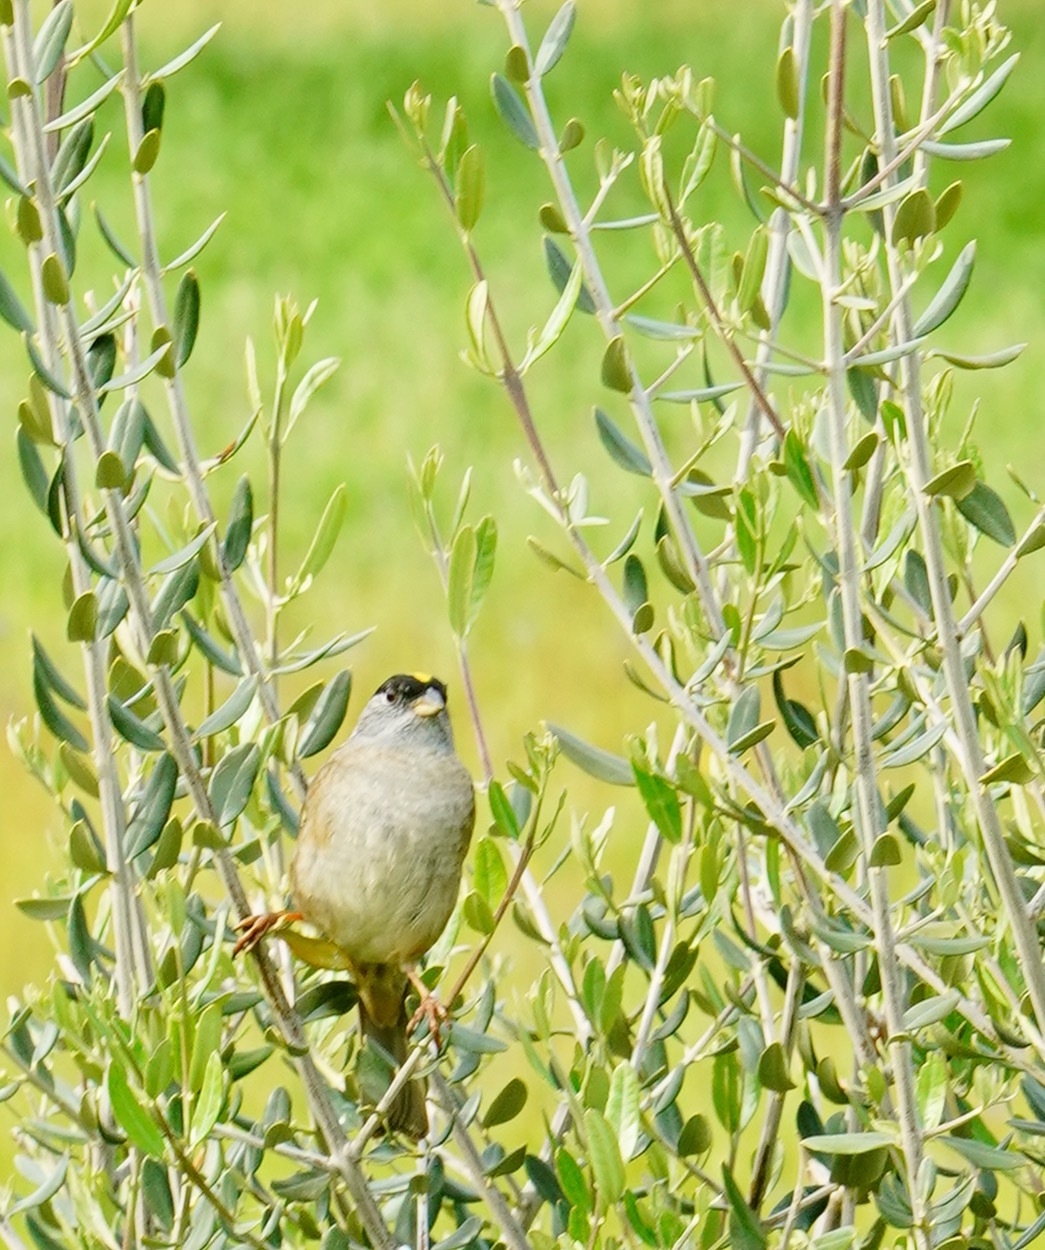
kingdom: Animalia
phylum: Chordata
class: Aves
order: Passeriformes
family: Passerellidae
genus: Zonotrichia
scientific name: Zonotrichia atricapilla
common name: Golden-crowned sparrow
